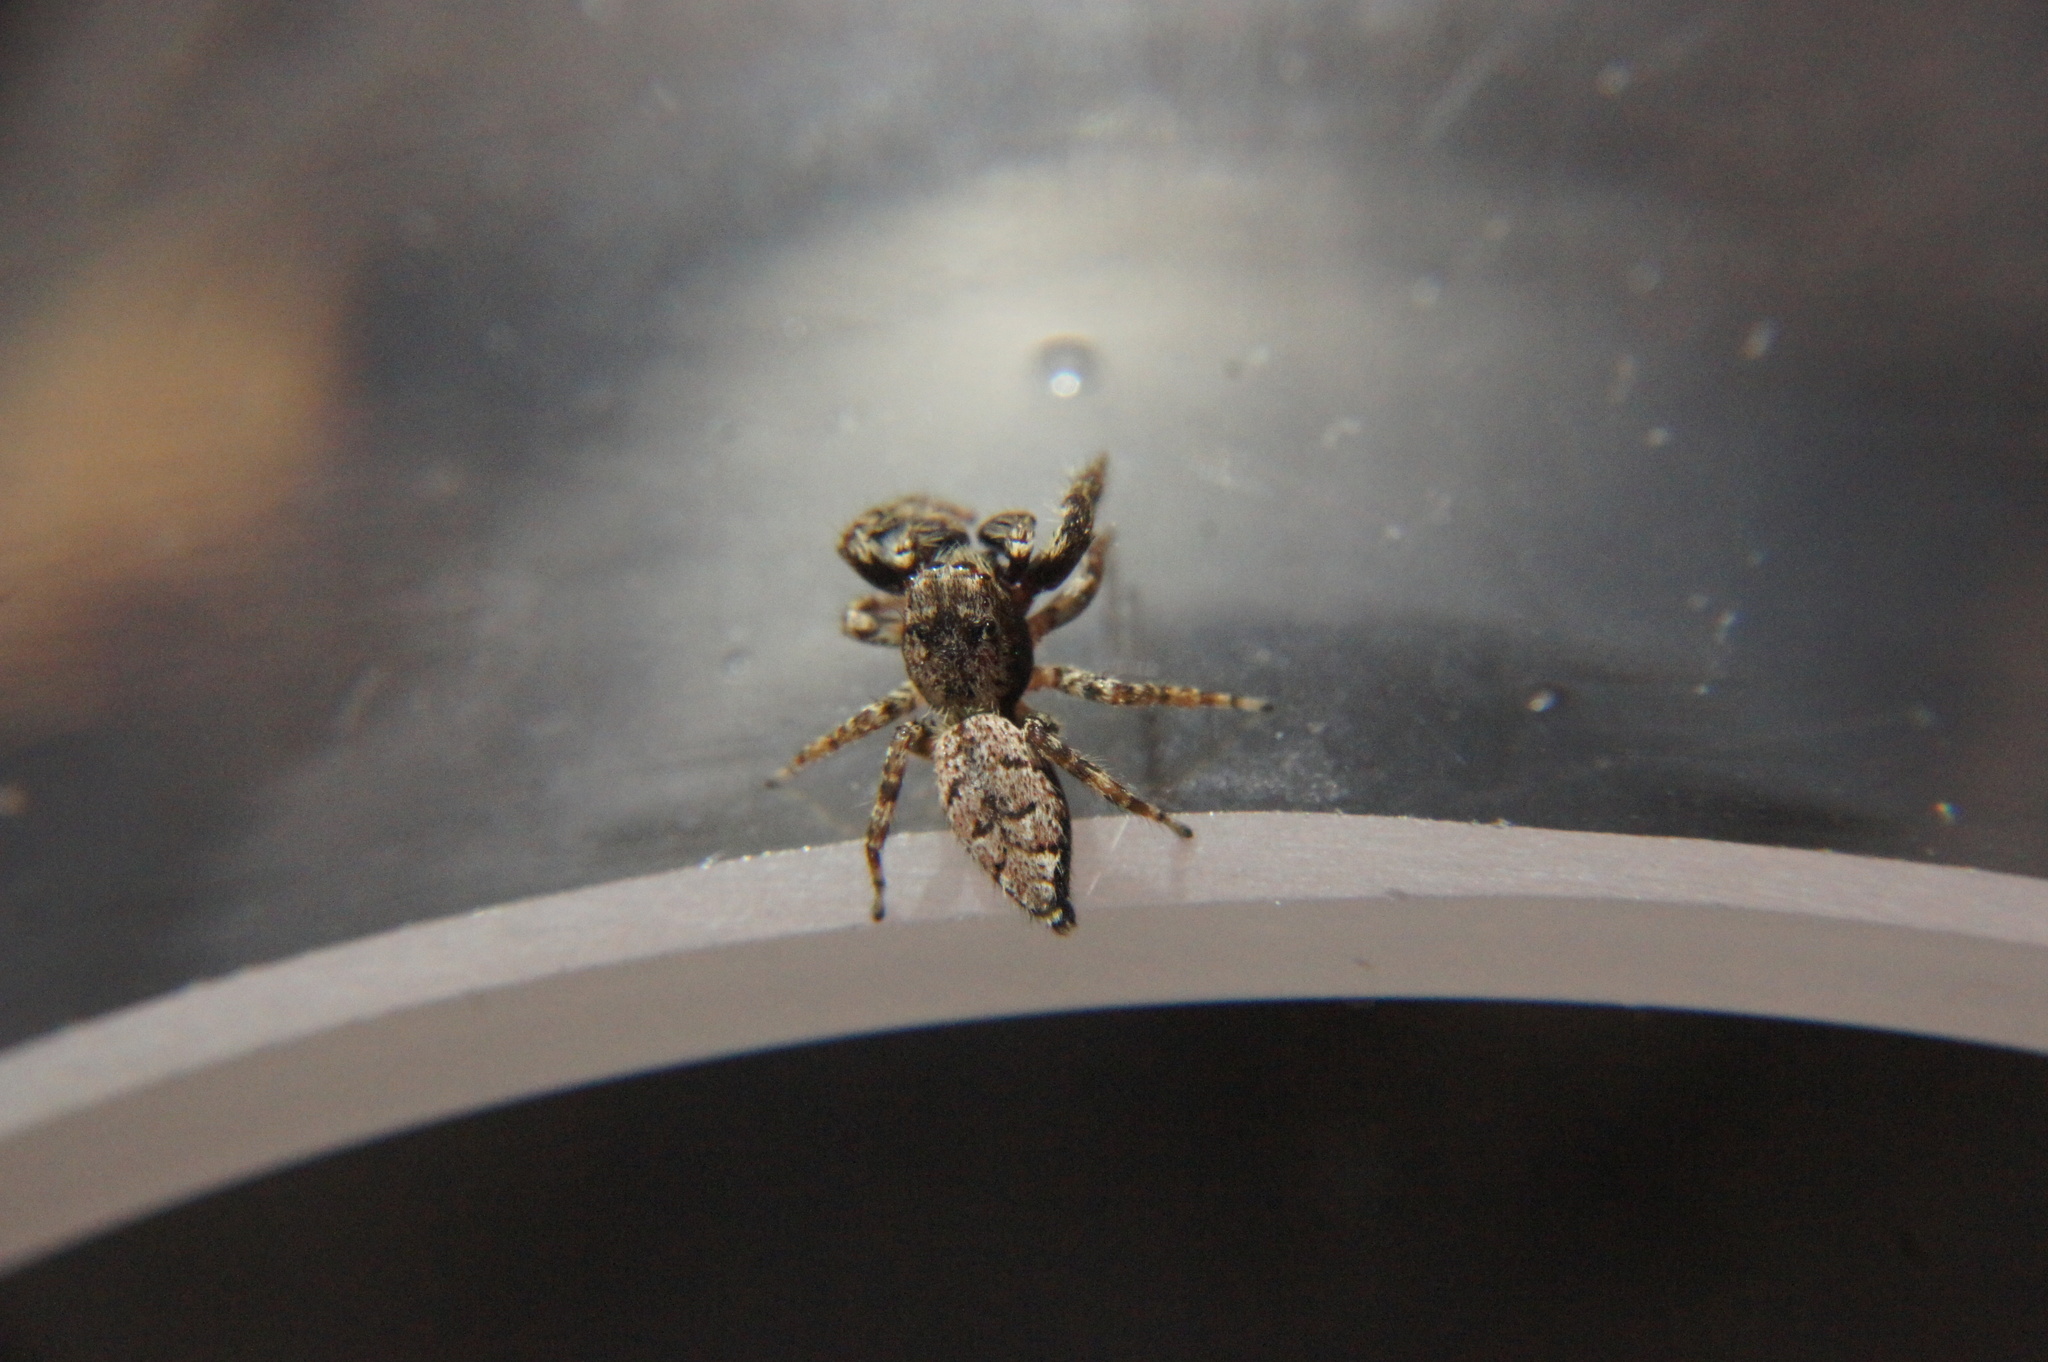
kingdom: Animalia
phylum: Arthropoda
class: Arachnida
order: Araneae
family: Salticidae
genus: Marpissa
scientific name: Marpissa muscosa
